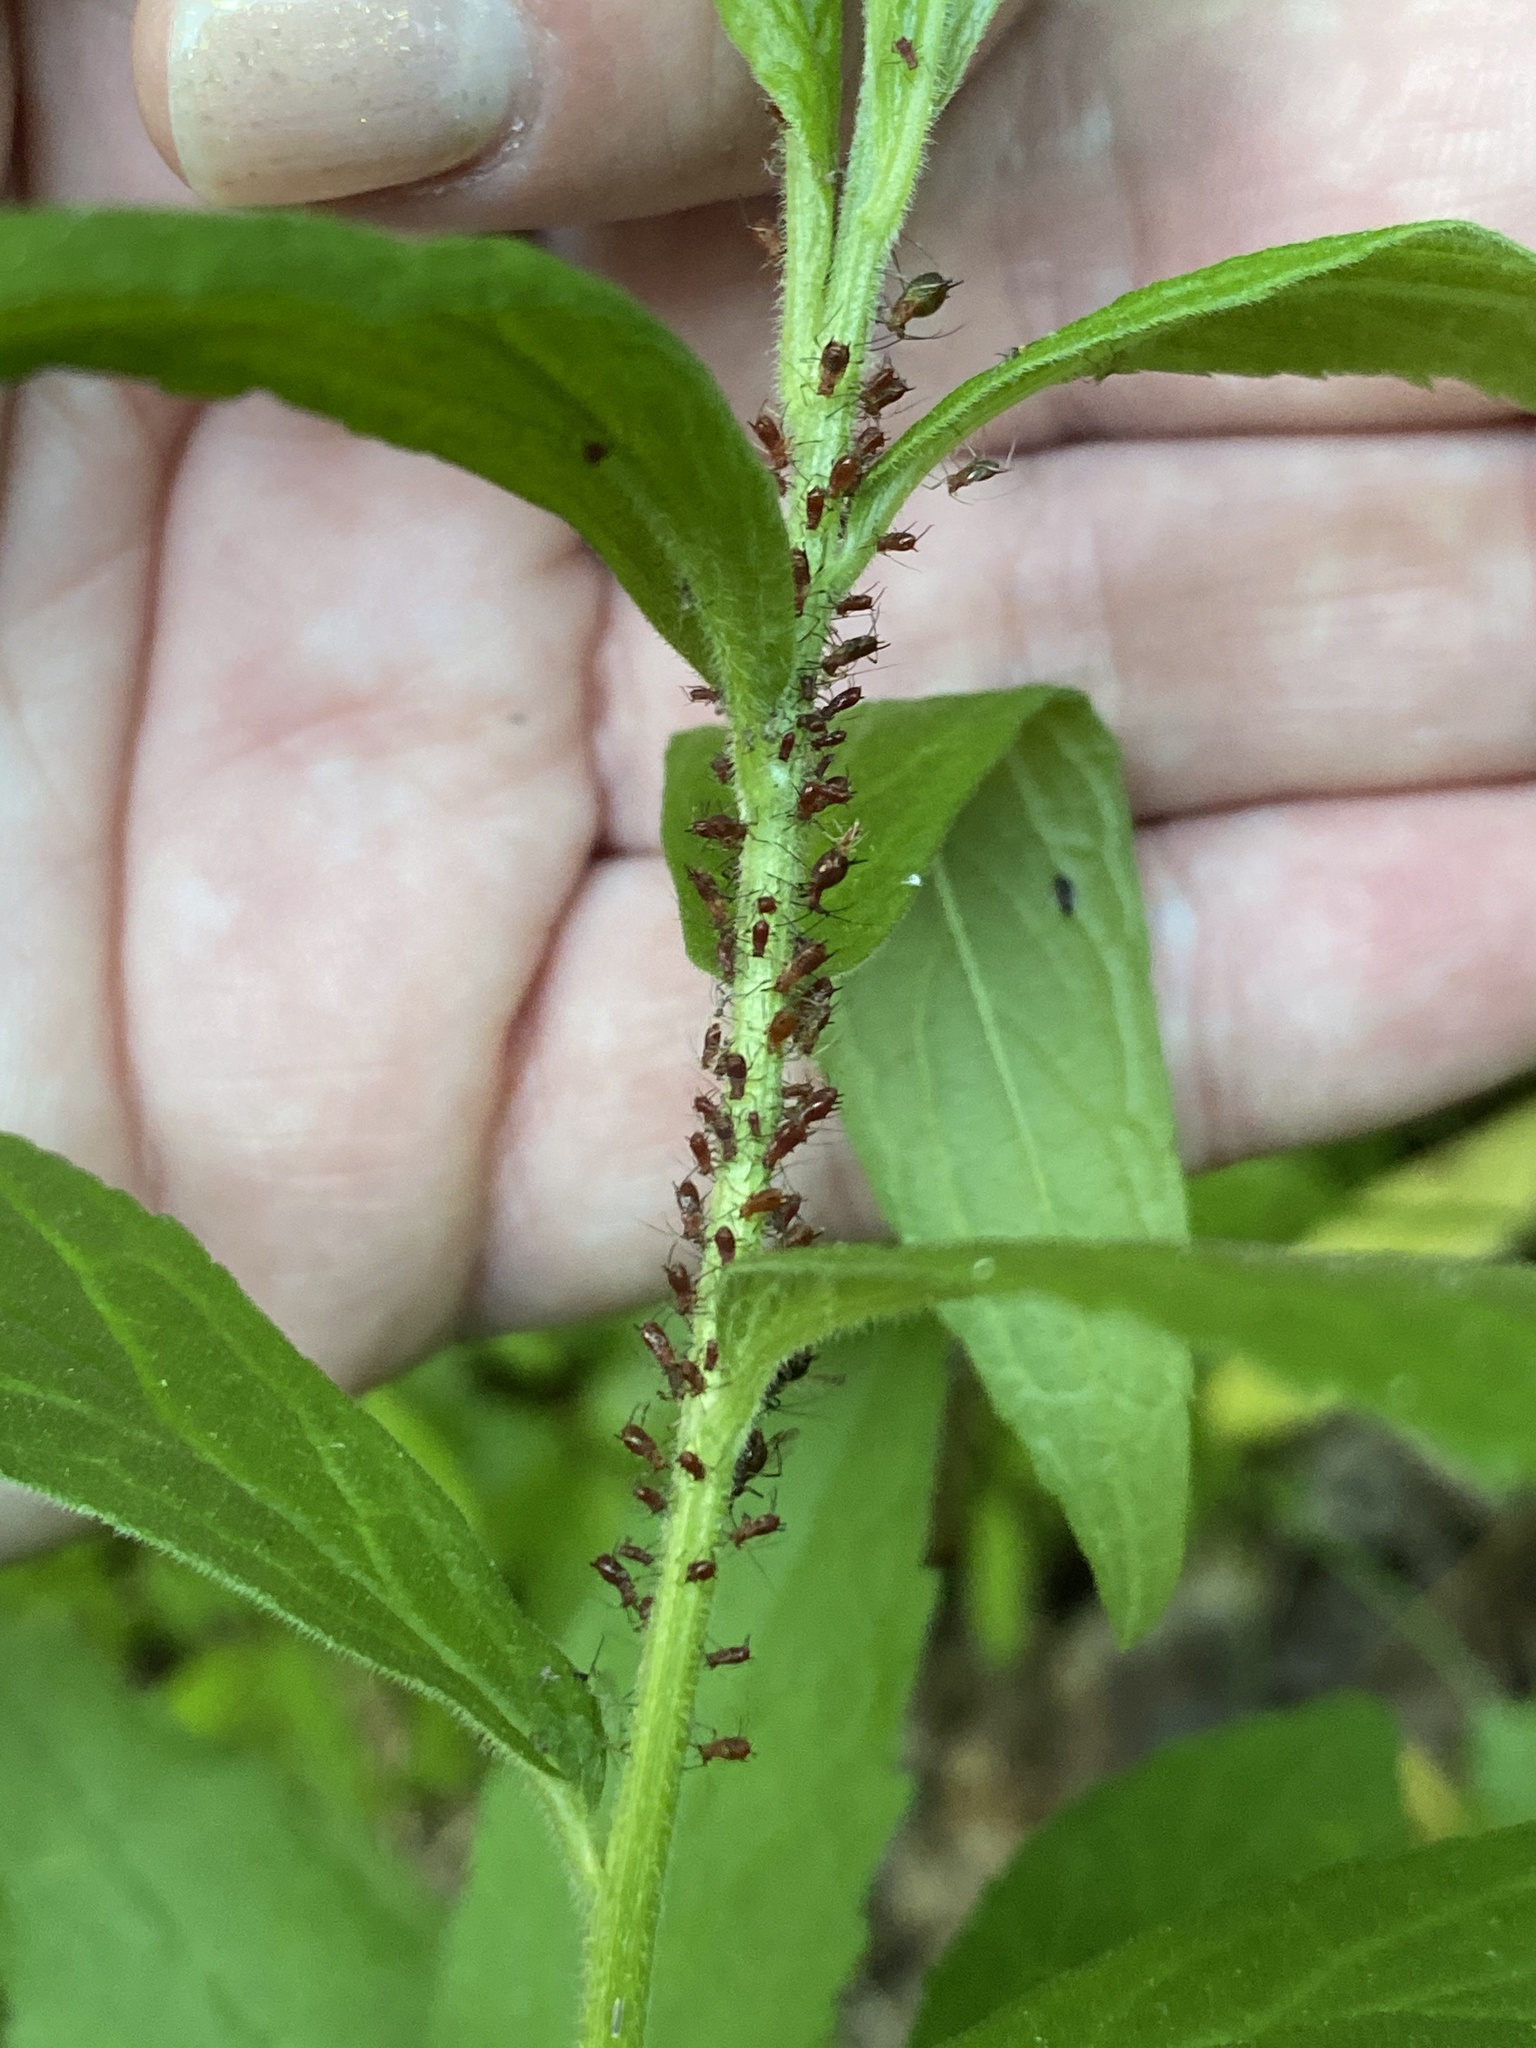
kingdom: Animalia
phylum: Arthropoda
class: Insecta
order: Hemiptera
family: Aphididae
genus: Uroleucon
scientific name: Uroleucon solidaginis
